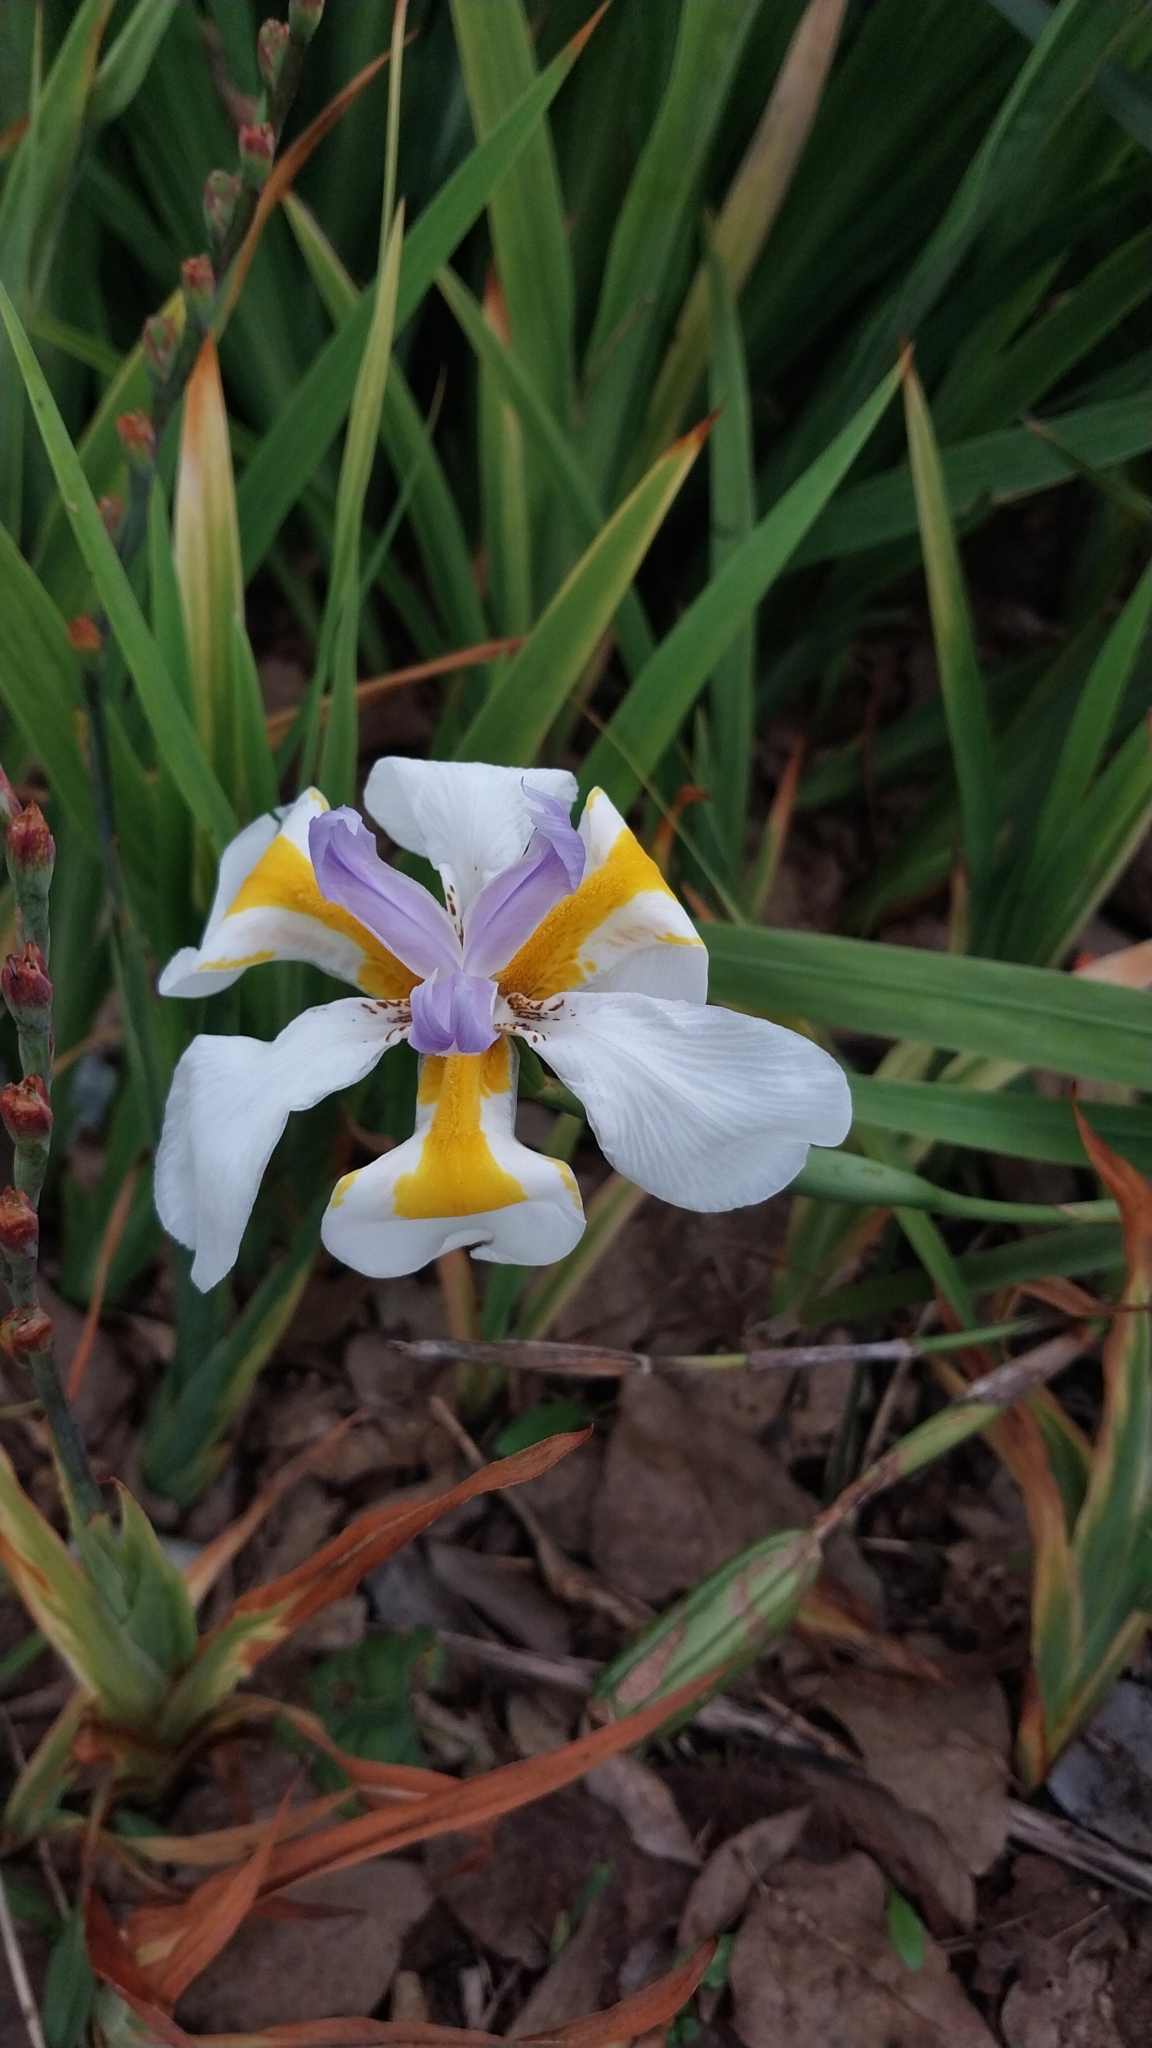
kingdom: Plantae
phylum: Tracheophyta
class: Liliopsida
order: Asparagales
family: Iridaceae
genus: Dietes
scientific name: Dietes grandiflora
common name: Wild iris
